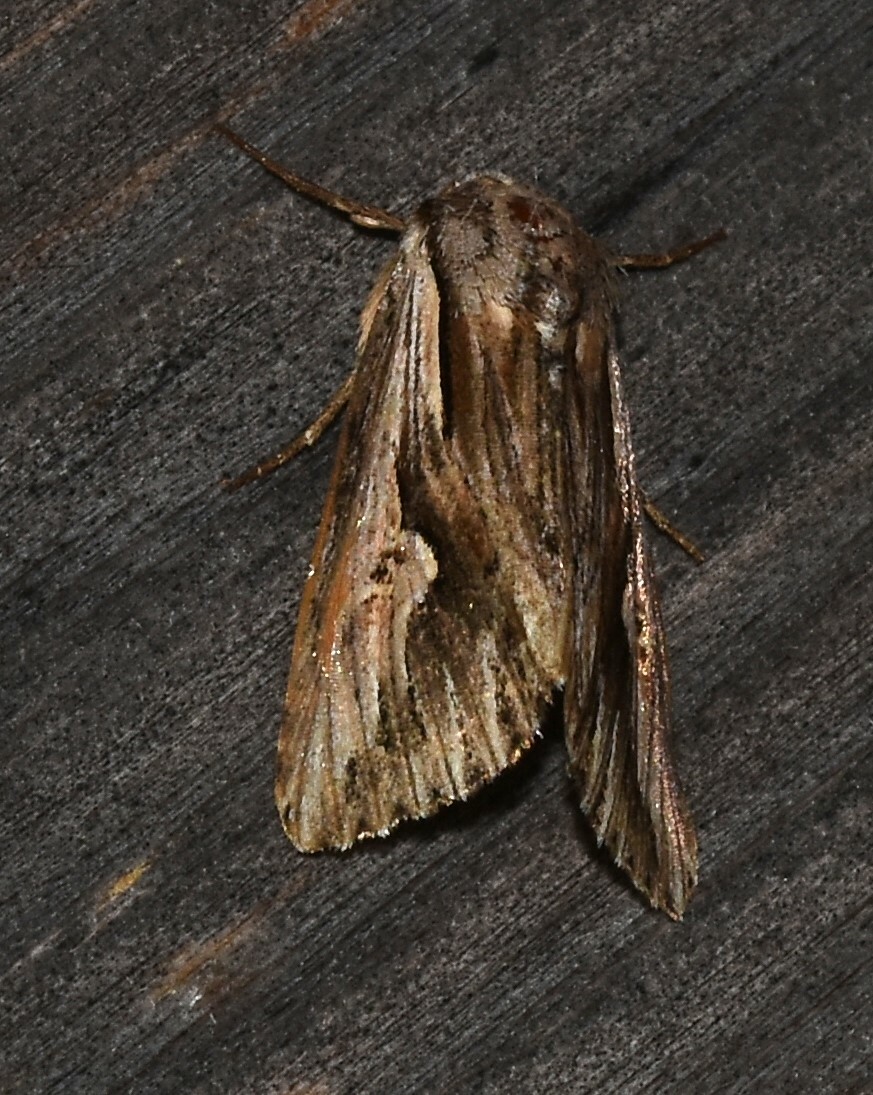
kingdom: Animalia
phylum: Arthropoda
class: Insecta
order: Lepidoptera
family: Noctuidae
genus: Nedra
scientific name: Nedra ramosula
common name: Gray half-spot
